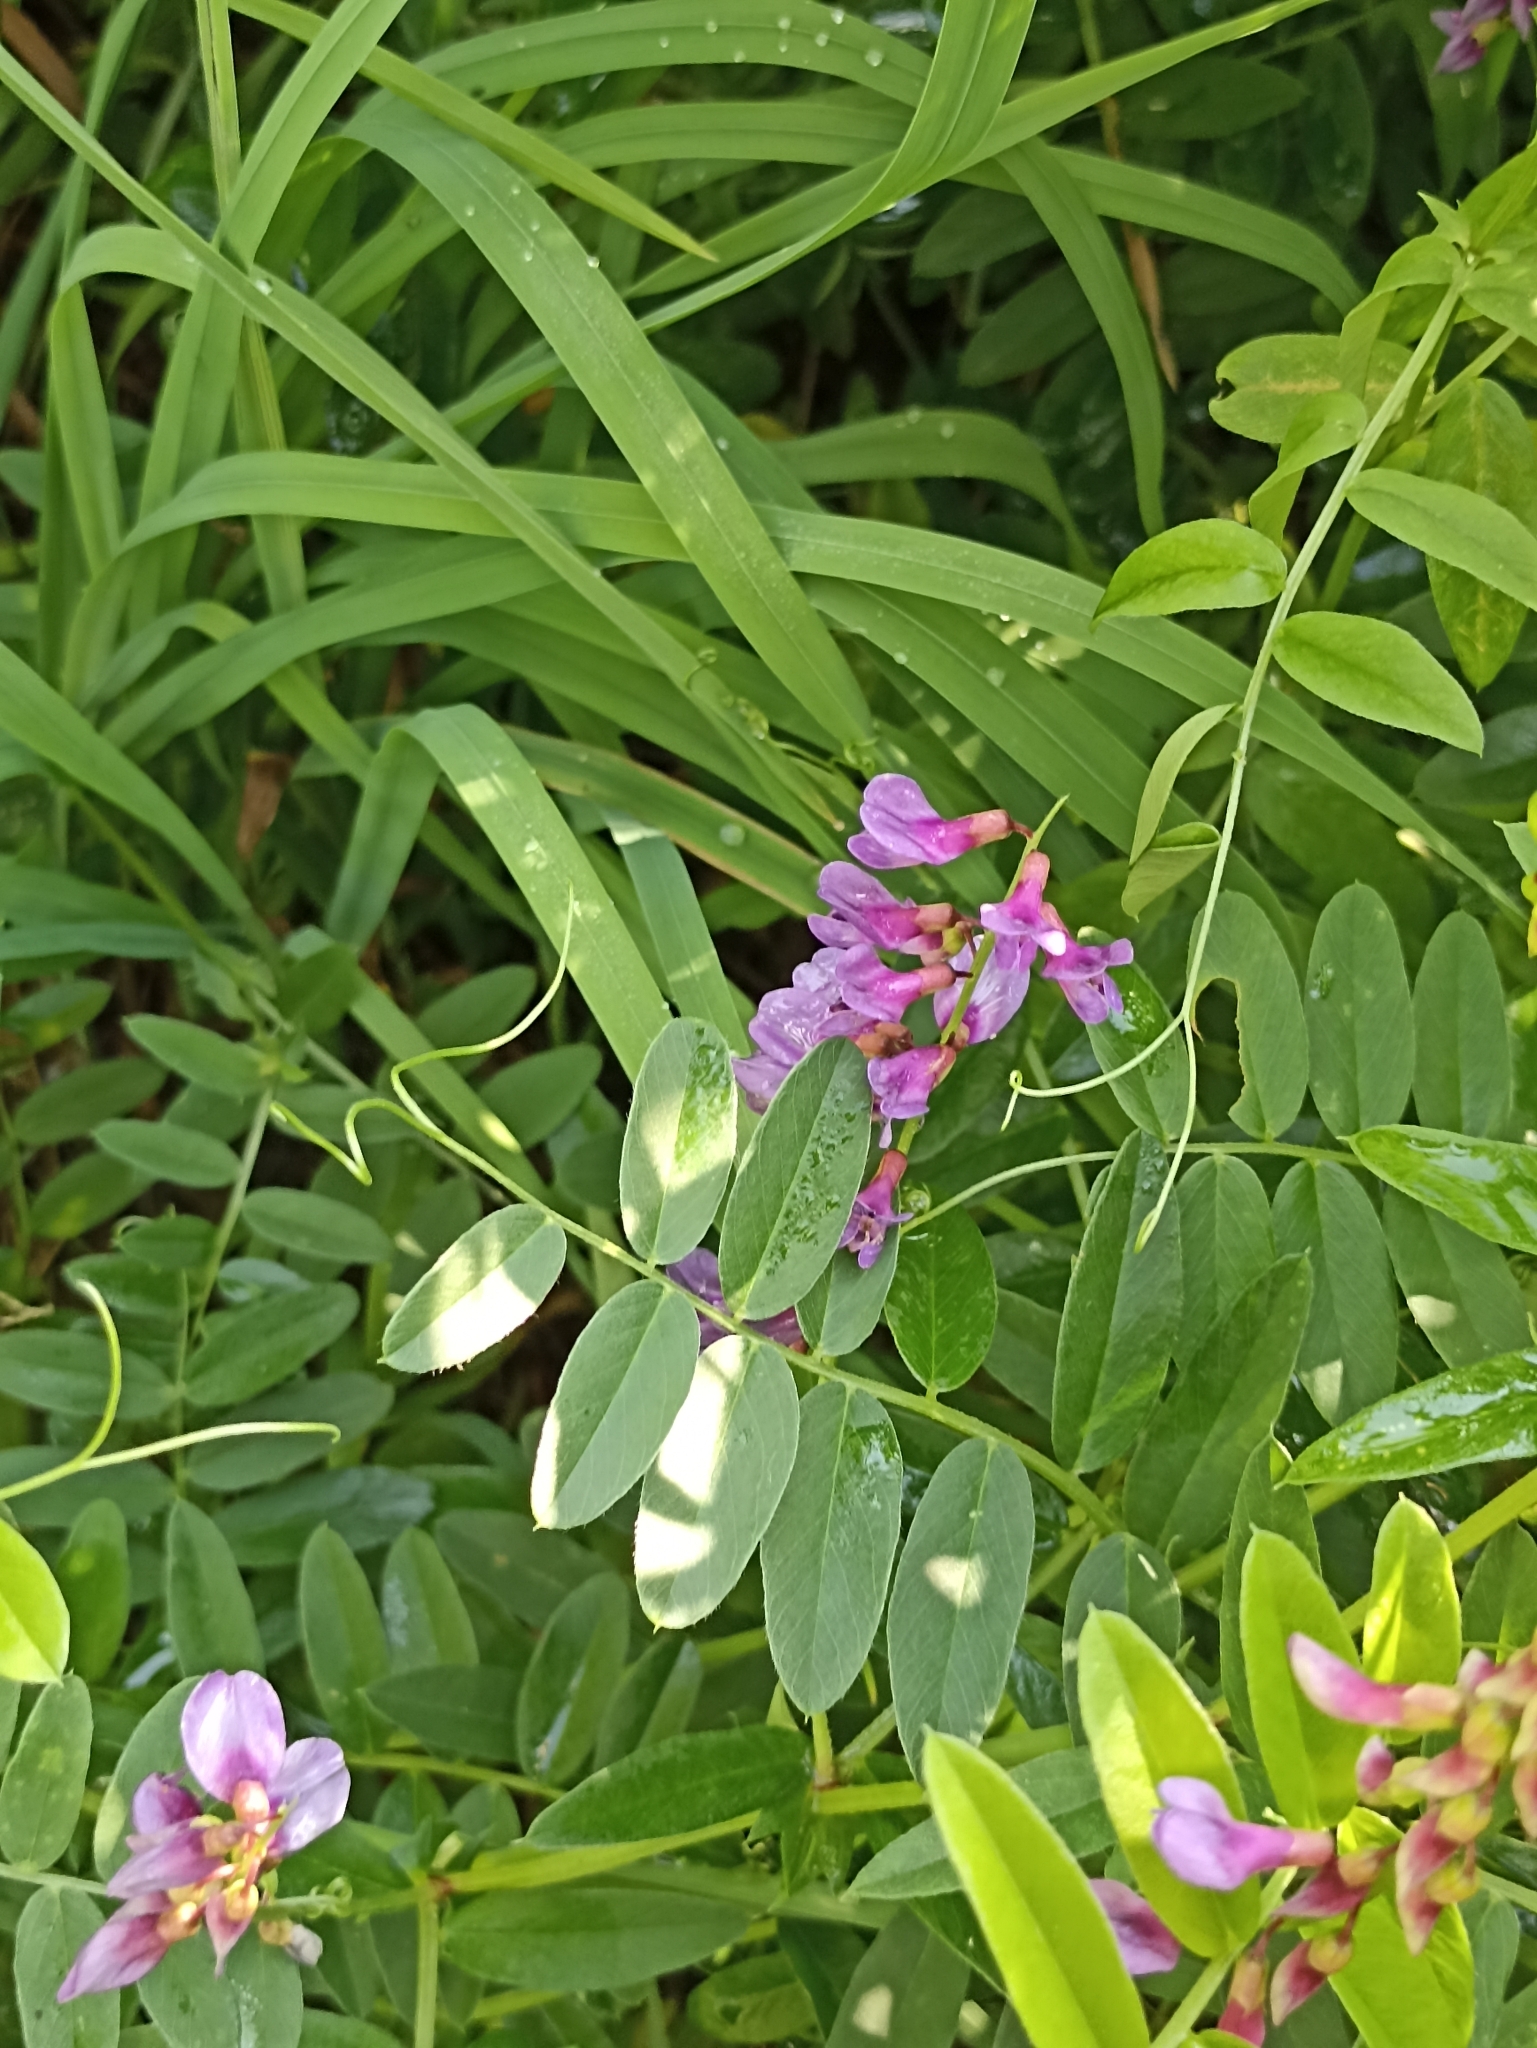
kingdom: Plantae
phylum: Tracheophyta
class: Magnoliopsida
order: Fabales
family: Fabaceae
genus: Vicia
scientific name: Vicia amoena
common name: Cheder ebs
